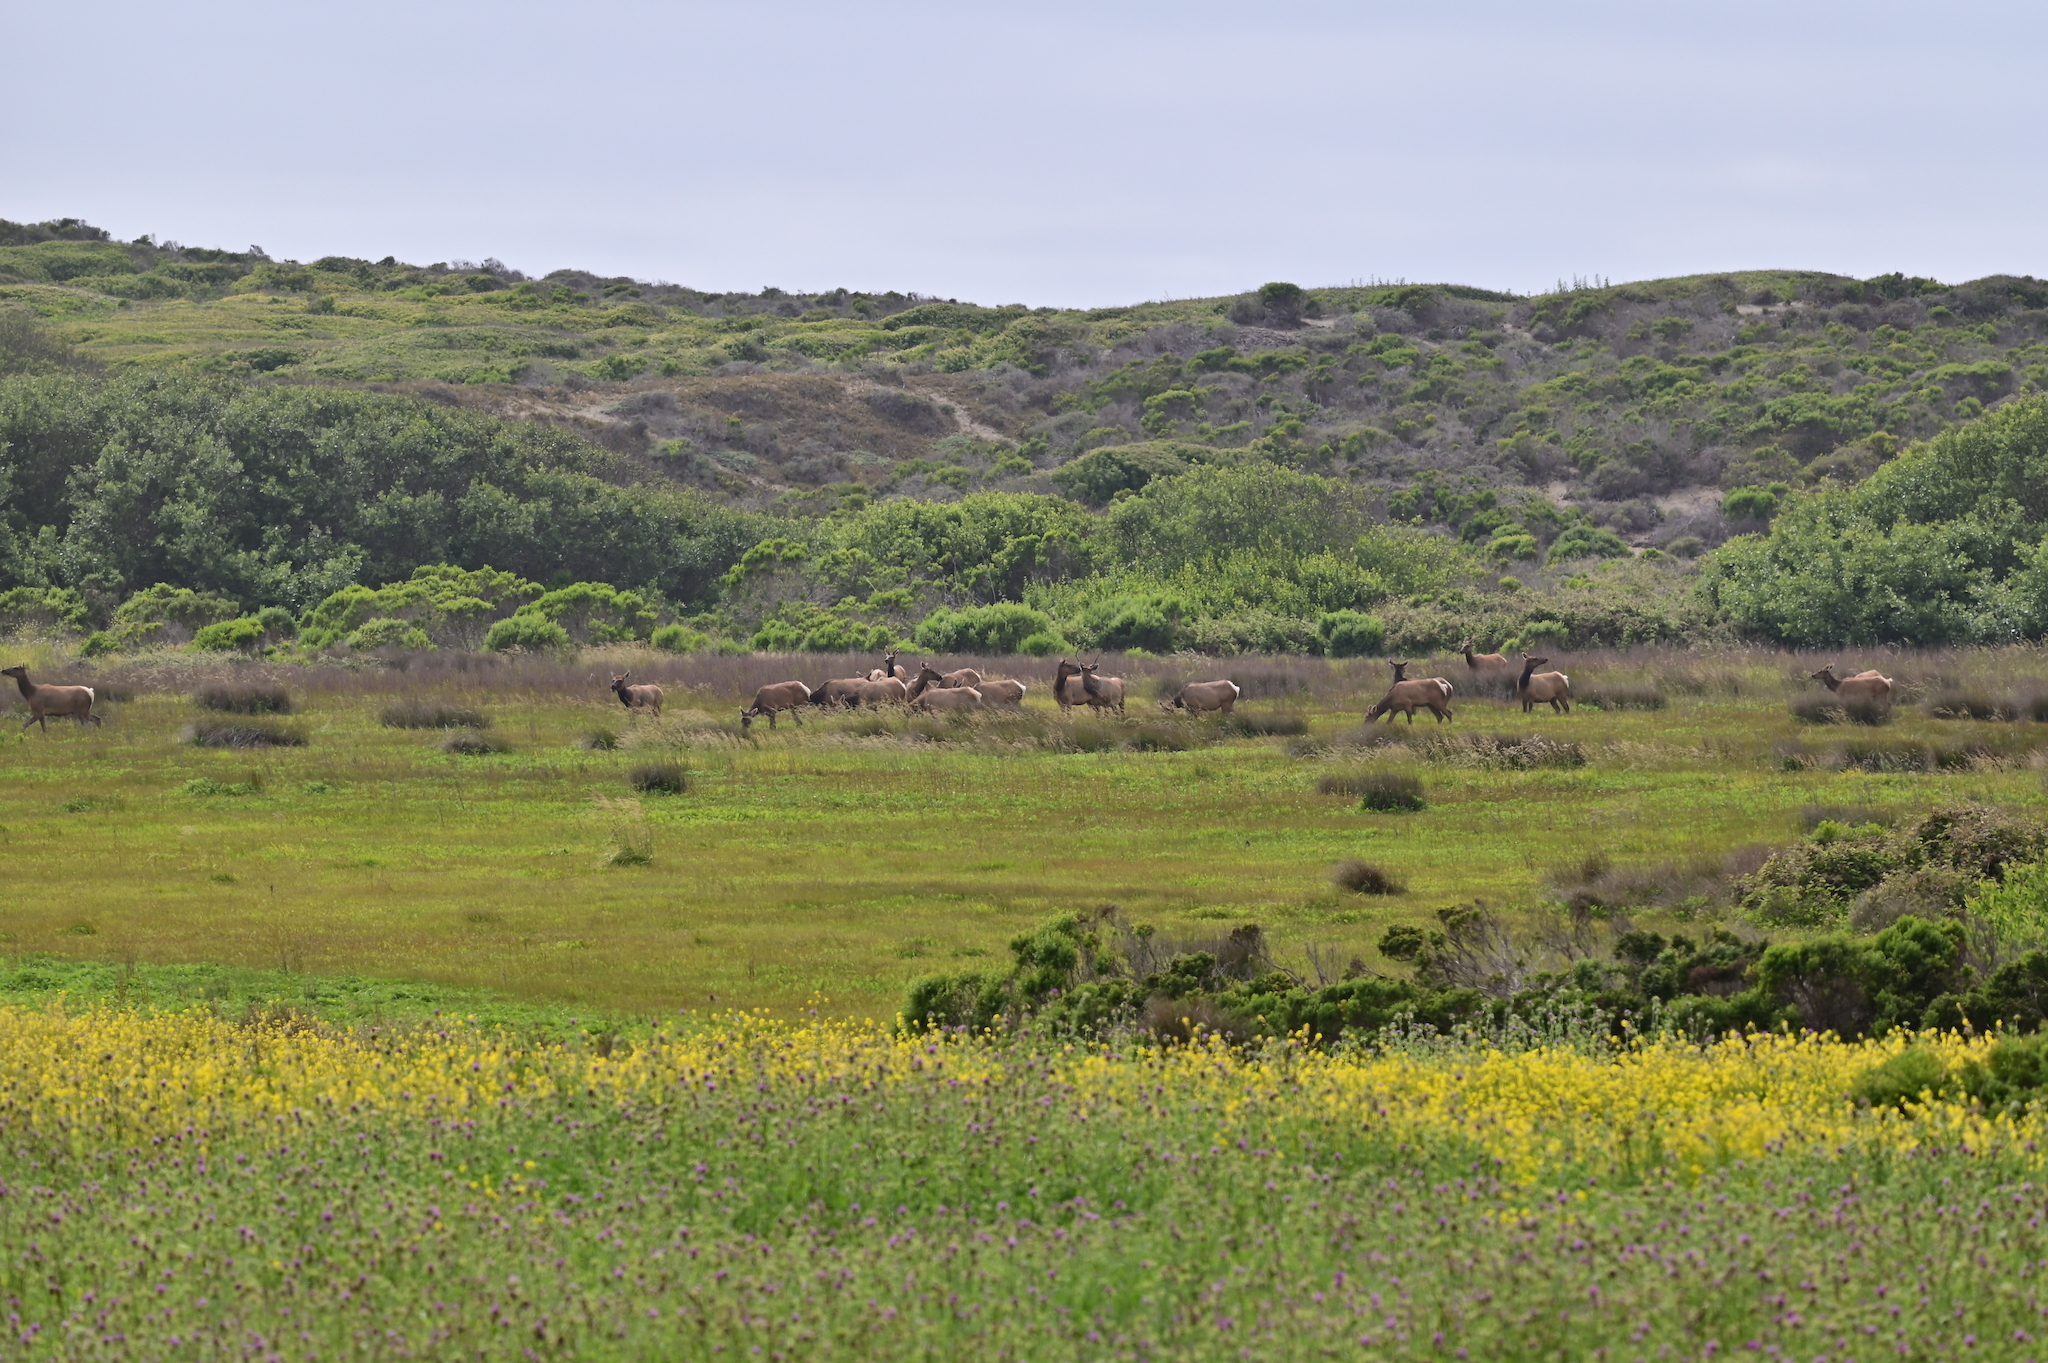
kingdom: Animalia
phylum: Chordata
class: Mammalia
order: Artiodactyla
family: Cervidae
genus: Cervus
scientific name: Cervus elaphus
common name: Red deer
